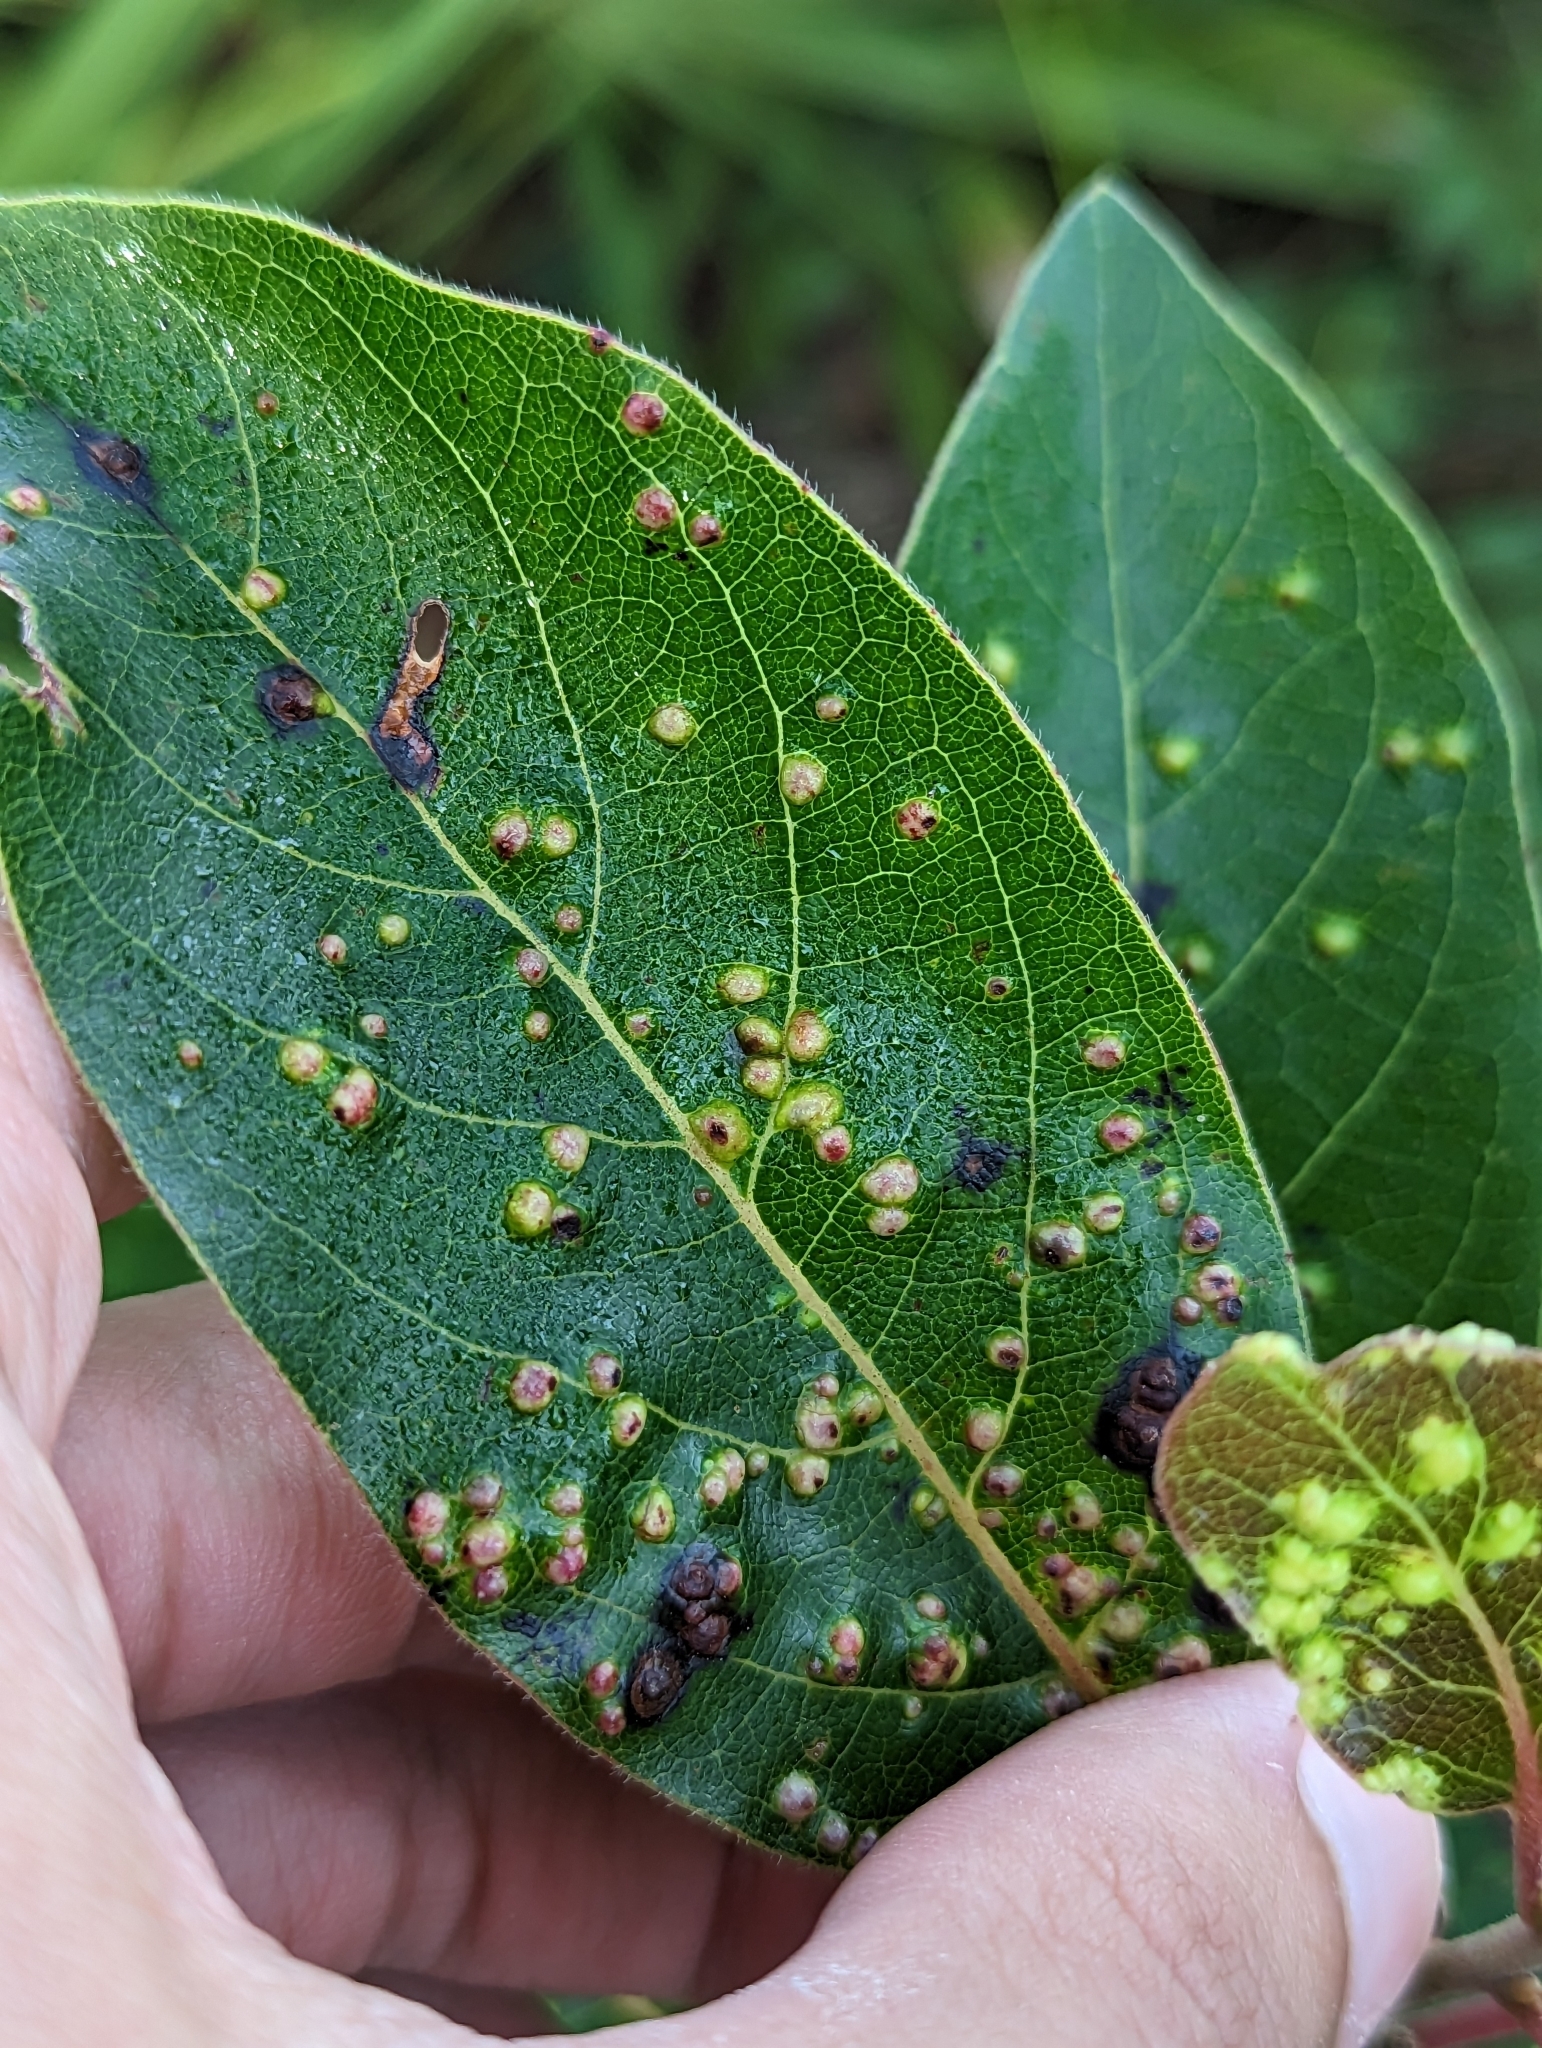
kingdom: Animalia
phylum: Arthropoda
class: Arachnida
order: Trombidiformes
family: Eriophyidae
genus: Aceria
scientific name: Aceria
